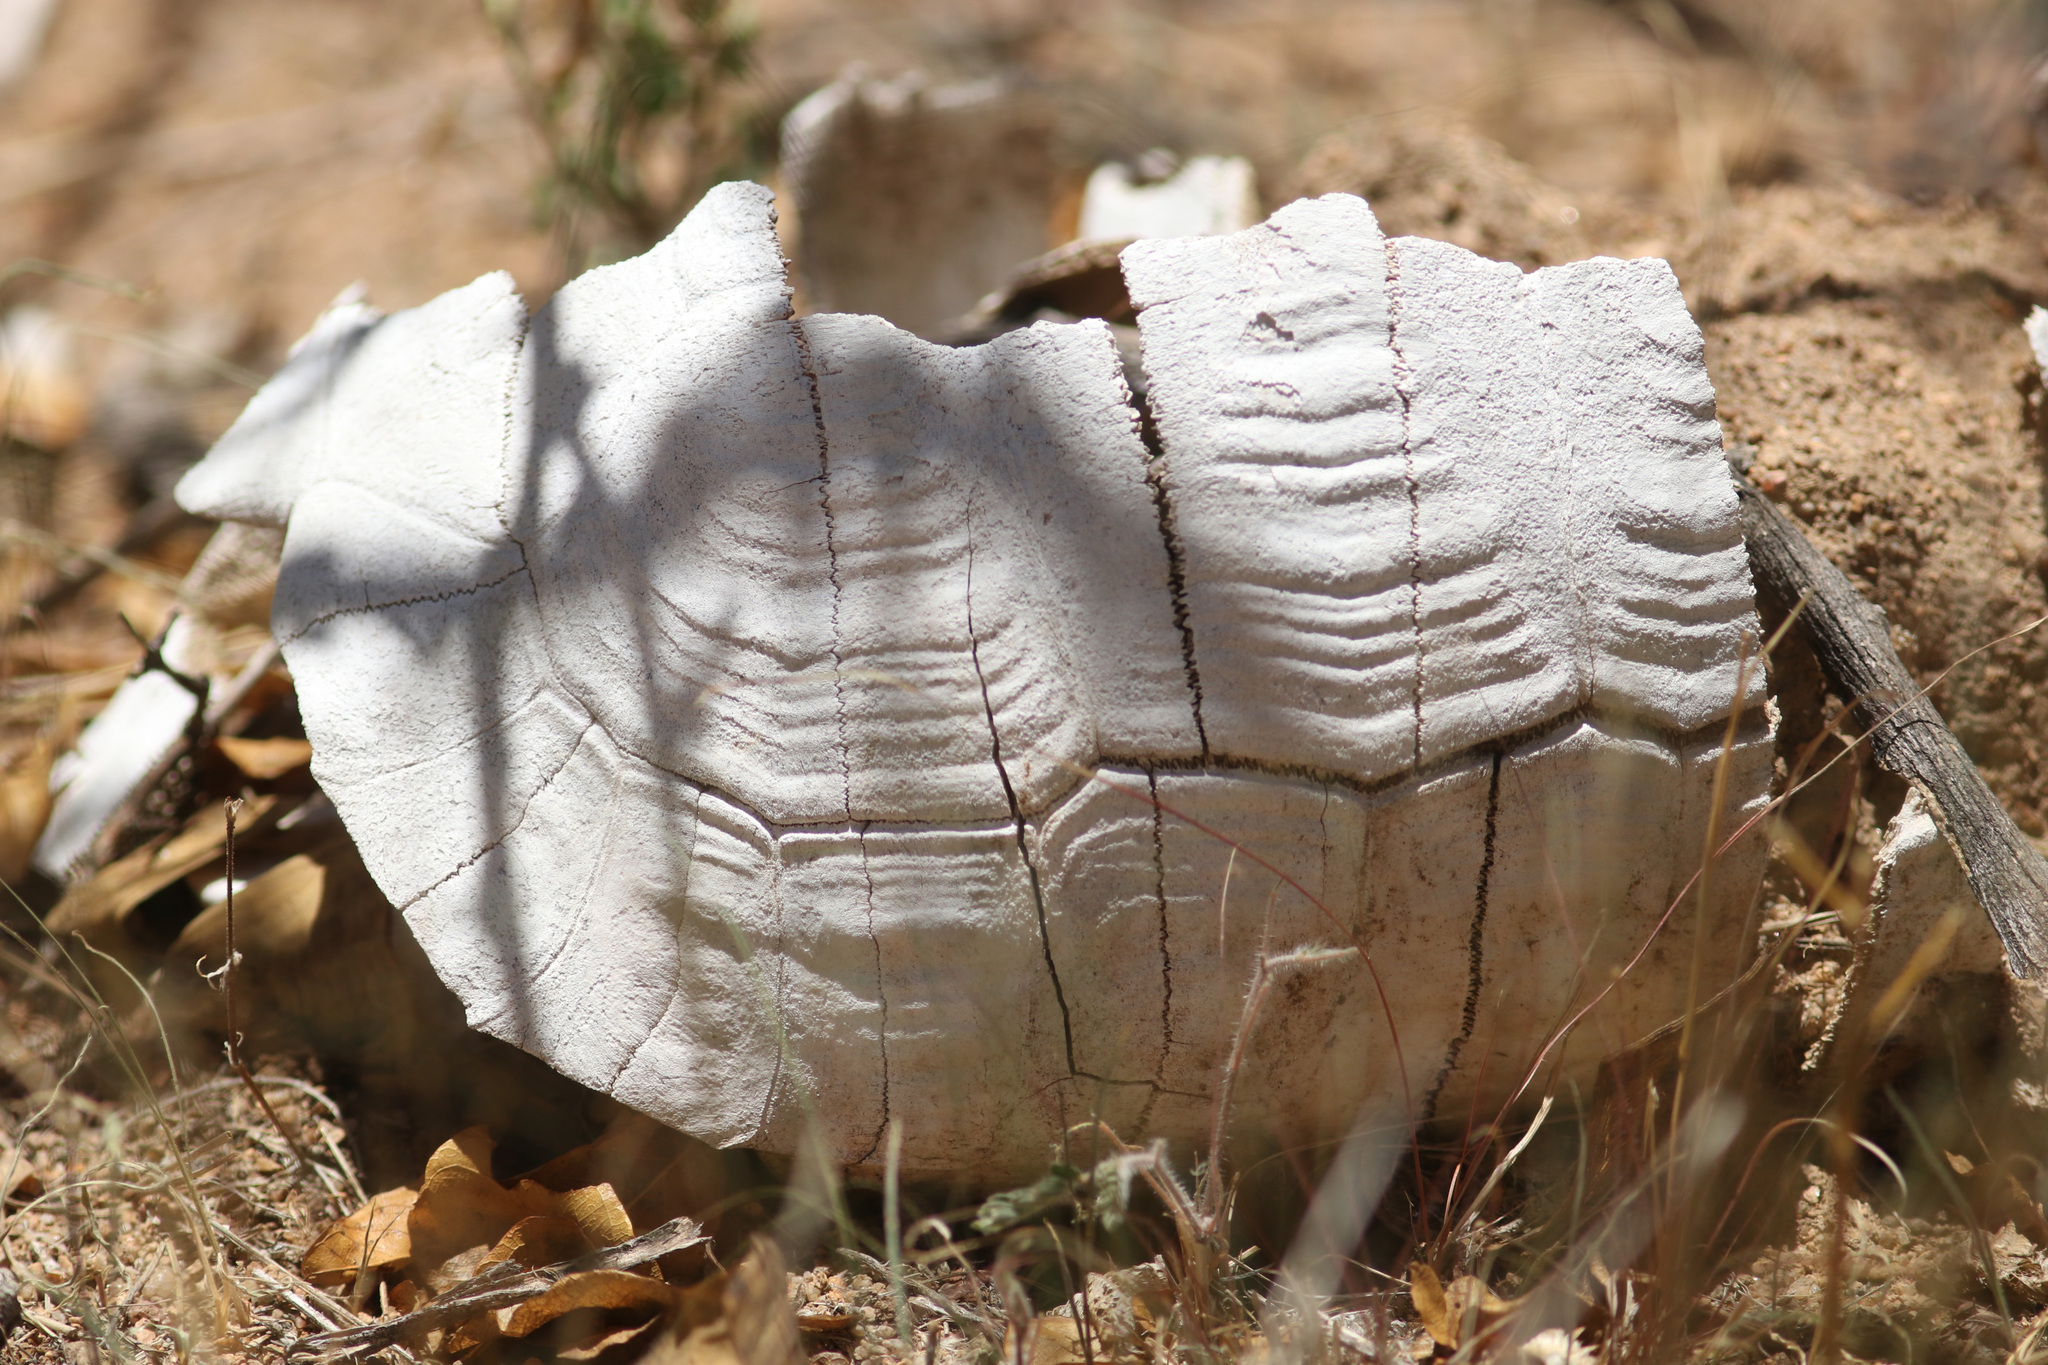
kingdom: Animalia
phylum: Chordata
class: Testudines
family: Testudinidae
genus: Stigmochelys
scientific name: Stigmochelys pardalis
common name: Leopard tortoise
